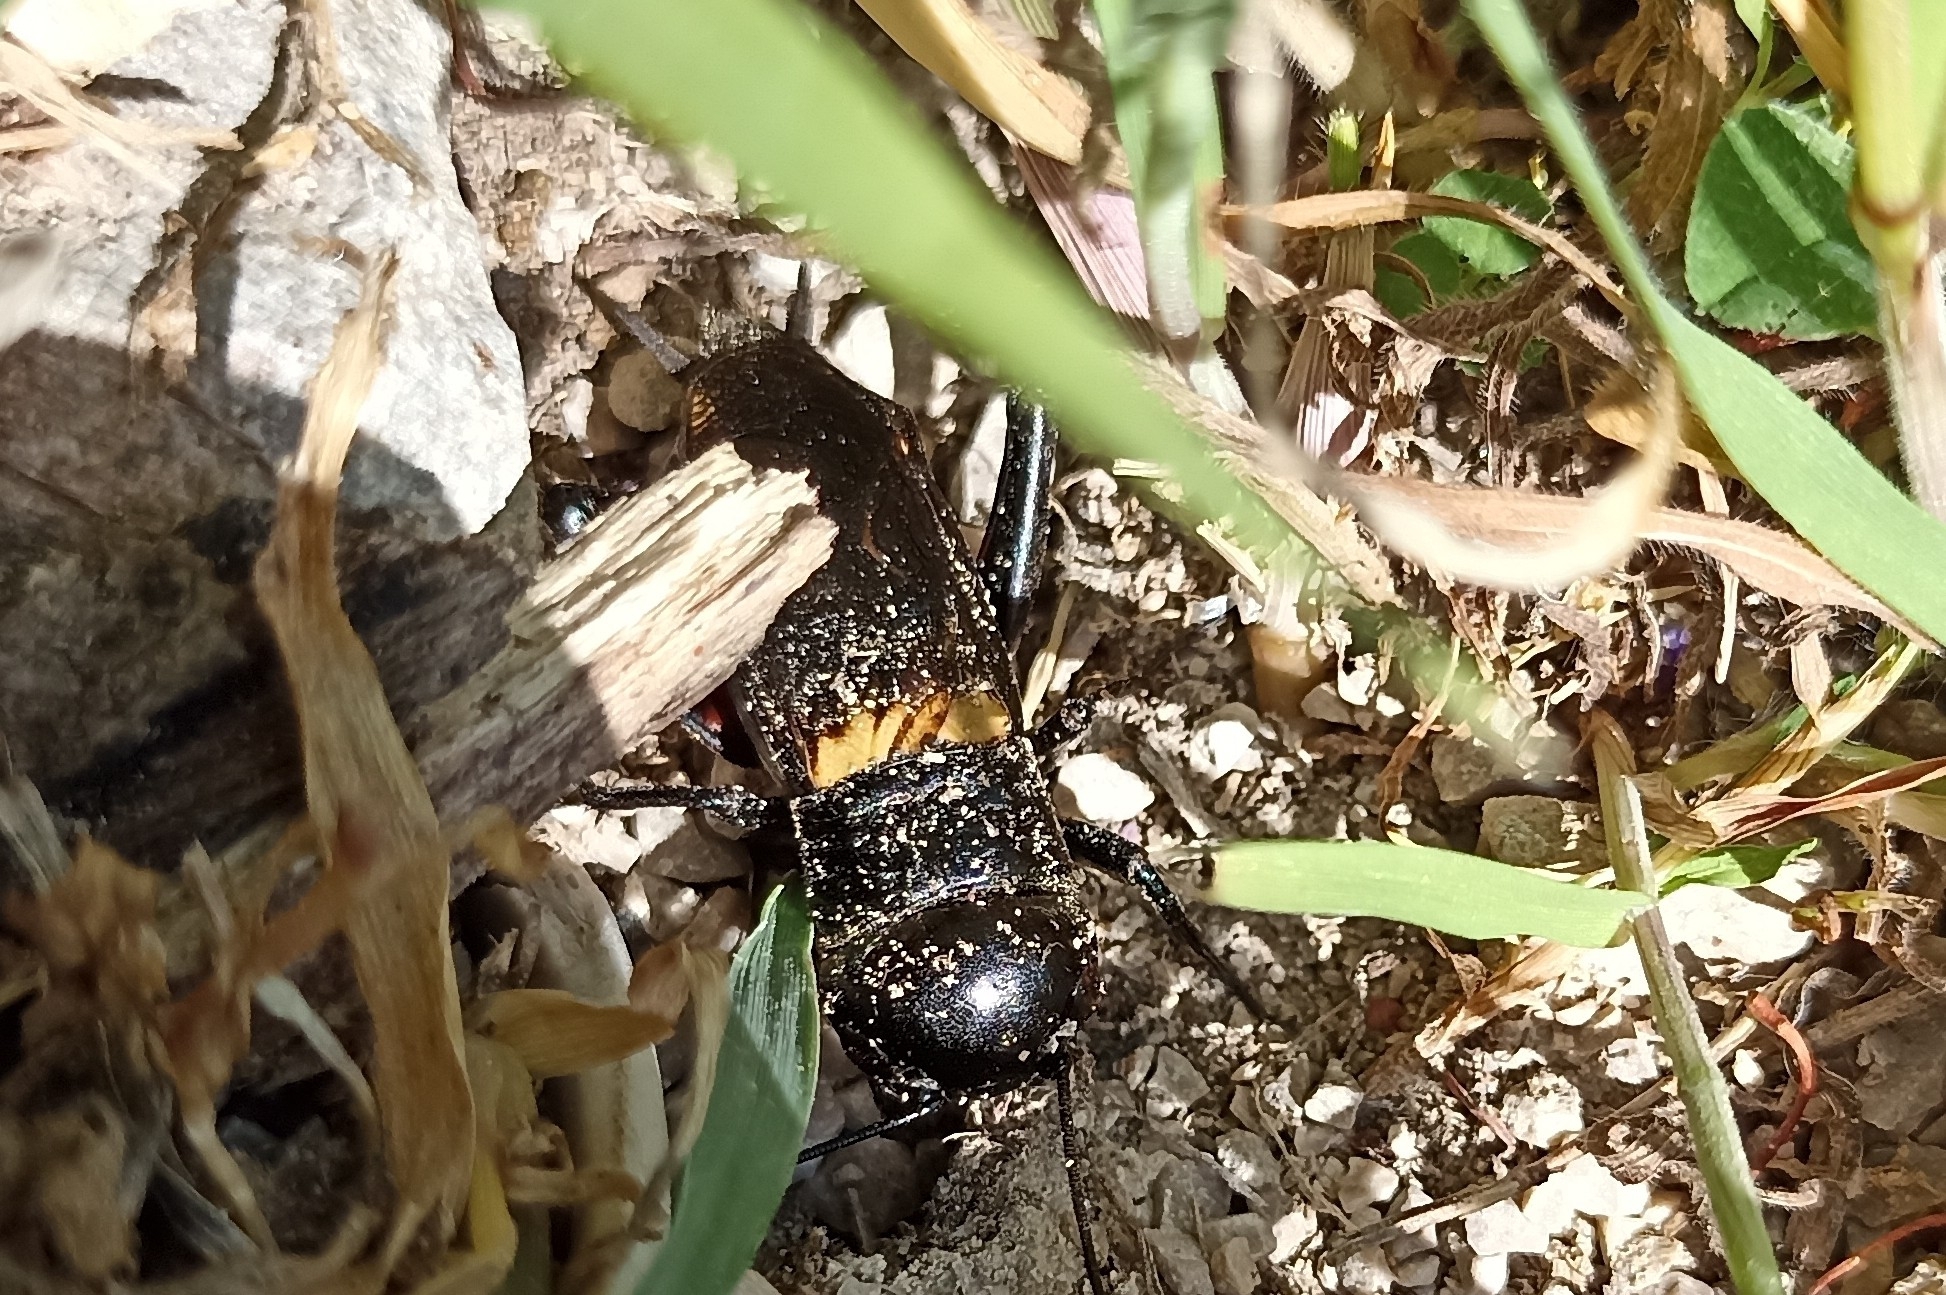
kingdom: Animalia
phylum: Arthropoda
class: Insecta
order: Orthoptera
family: Gryllidae
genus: Gryllus
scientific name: Gryllus campestris
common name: Field cricket
